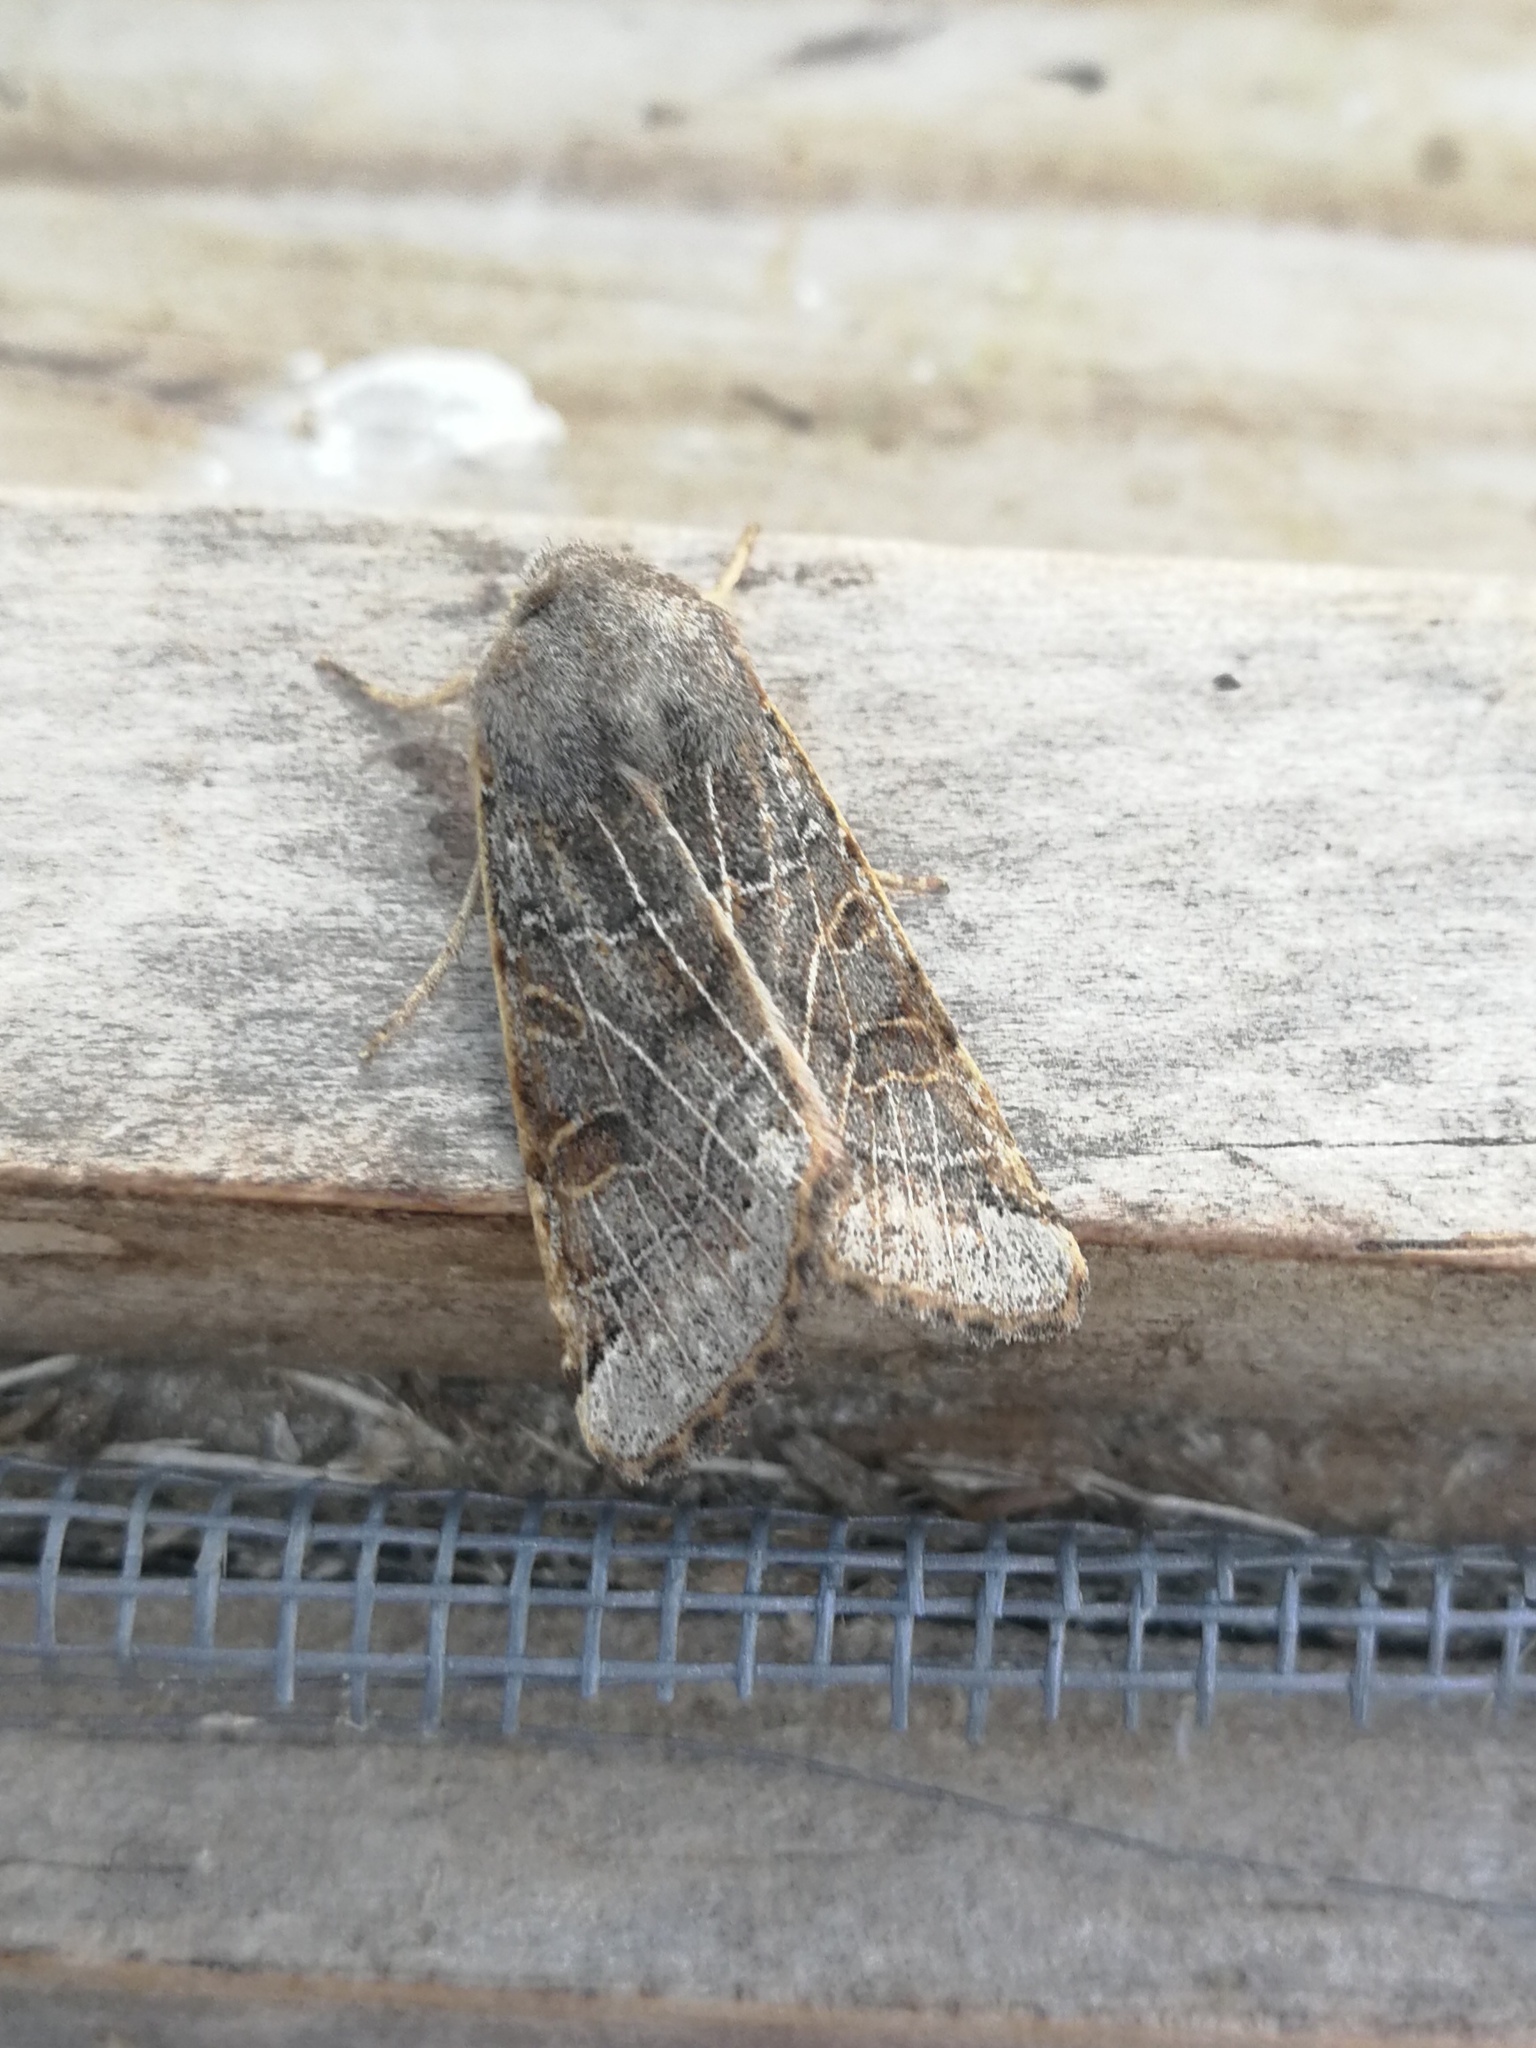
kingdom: Animalia
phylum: Arthropoda
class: Insecta
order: Lepidoptera
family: Noctuidae
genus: Agrochola
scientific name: Agrochola lunosa
